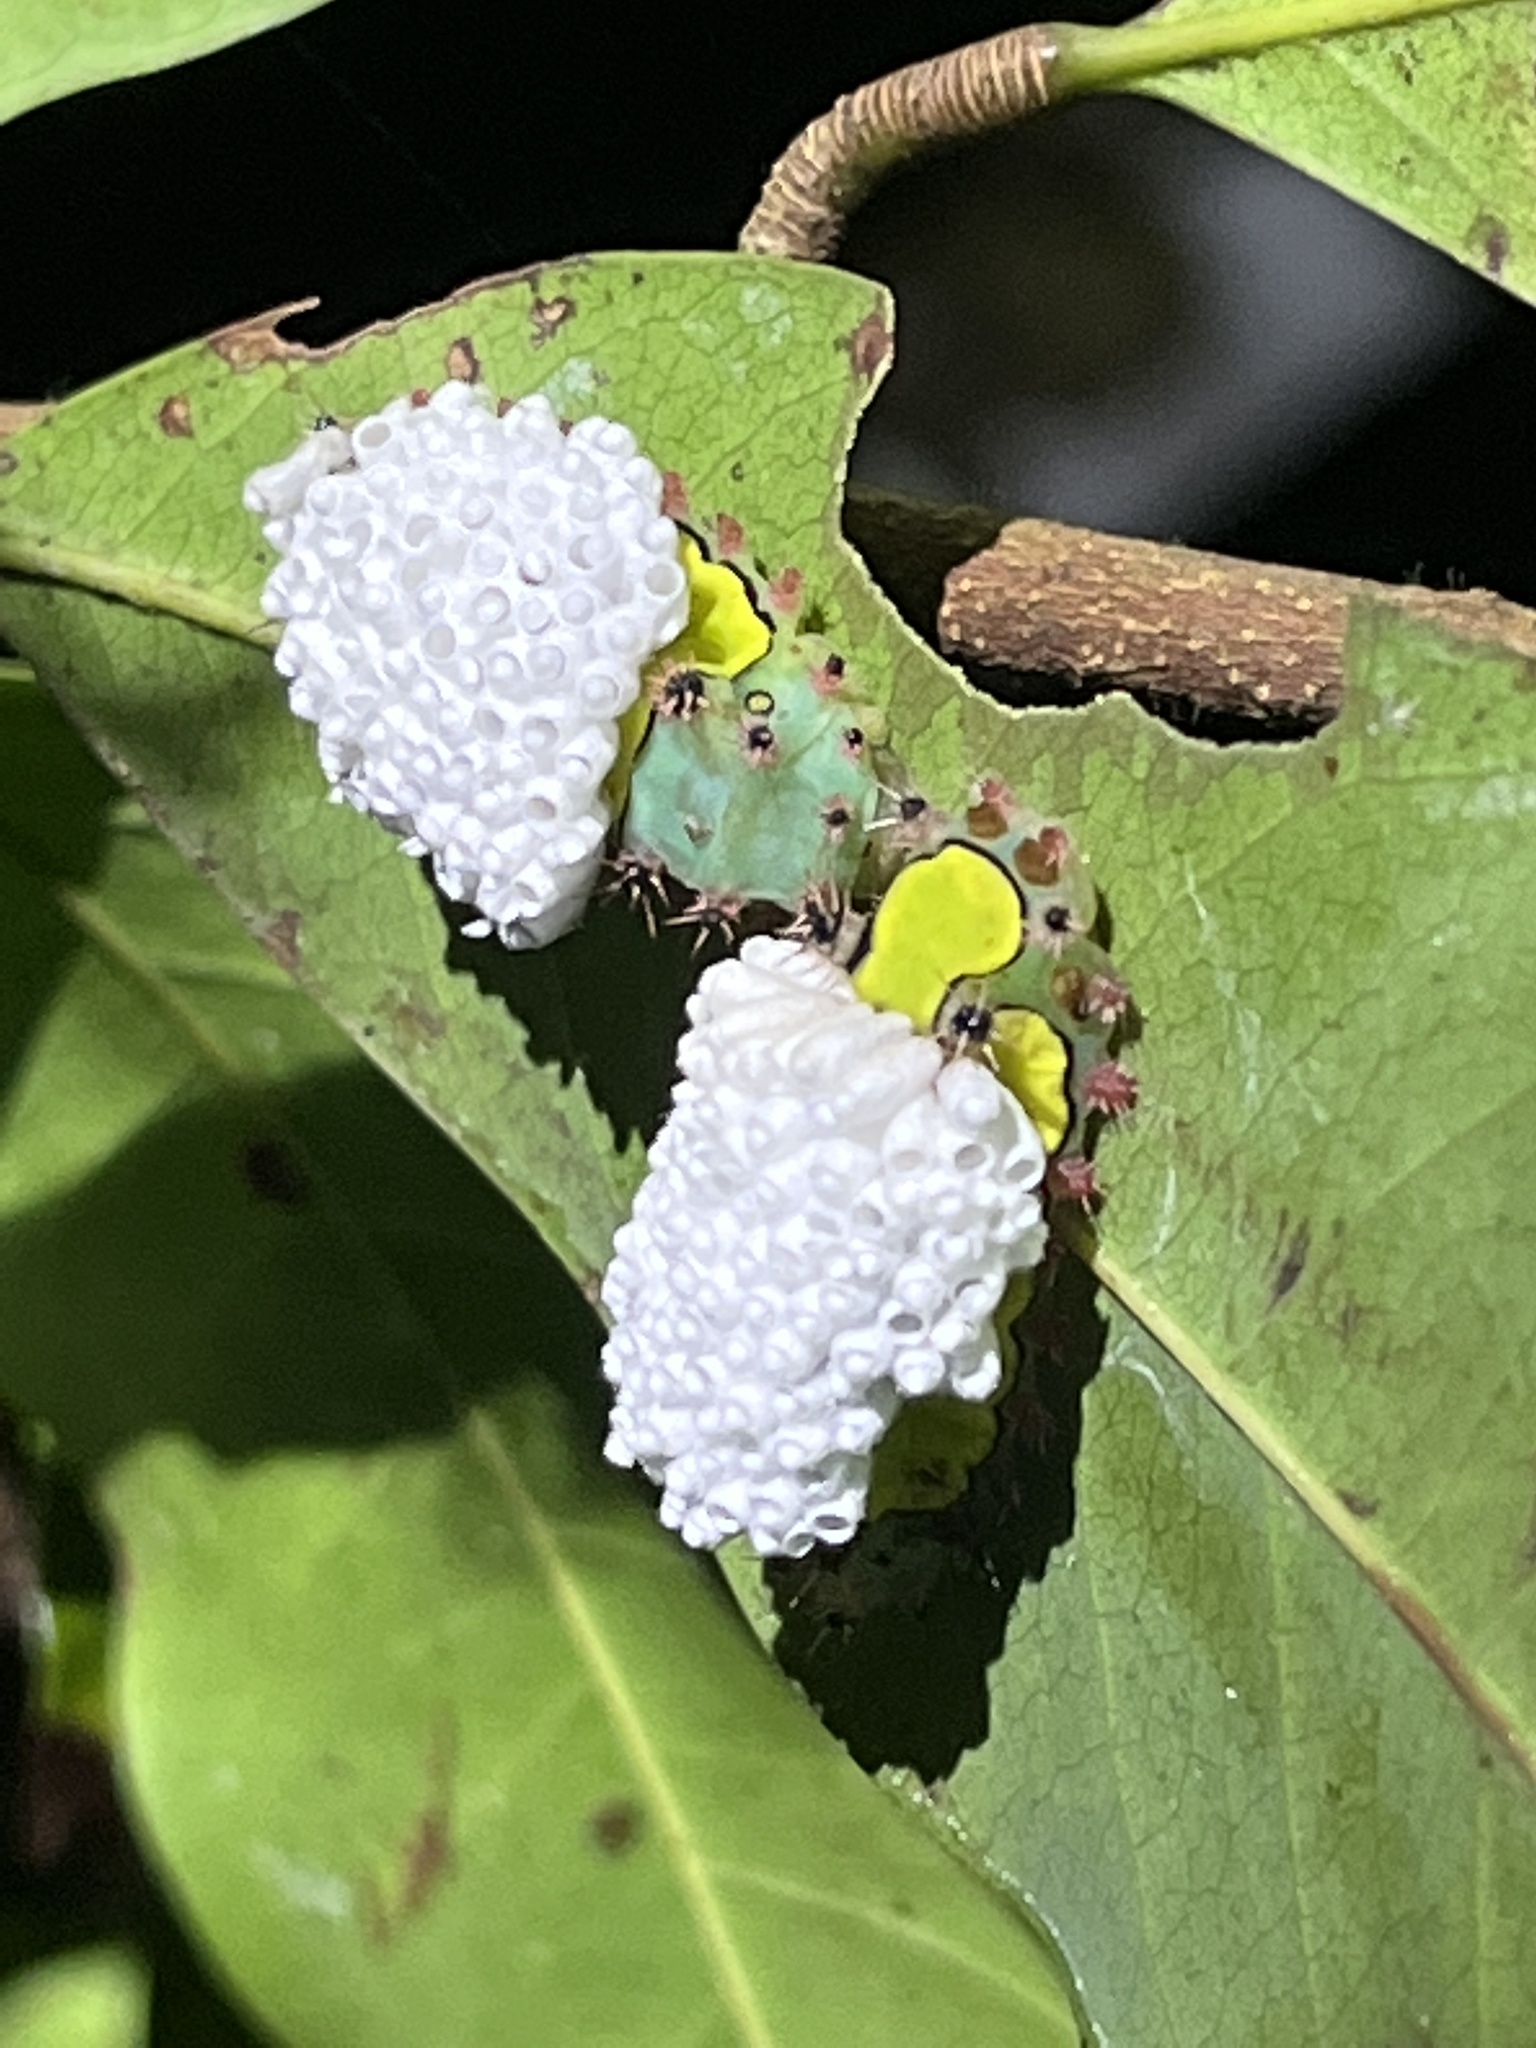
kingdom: Animalia
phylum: Arthropoda
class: Insecta
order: Lepidoptera
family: Limacodidae
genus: Sibine
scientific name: Sibine horrida
